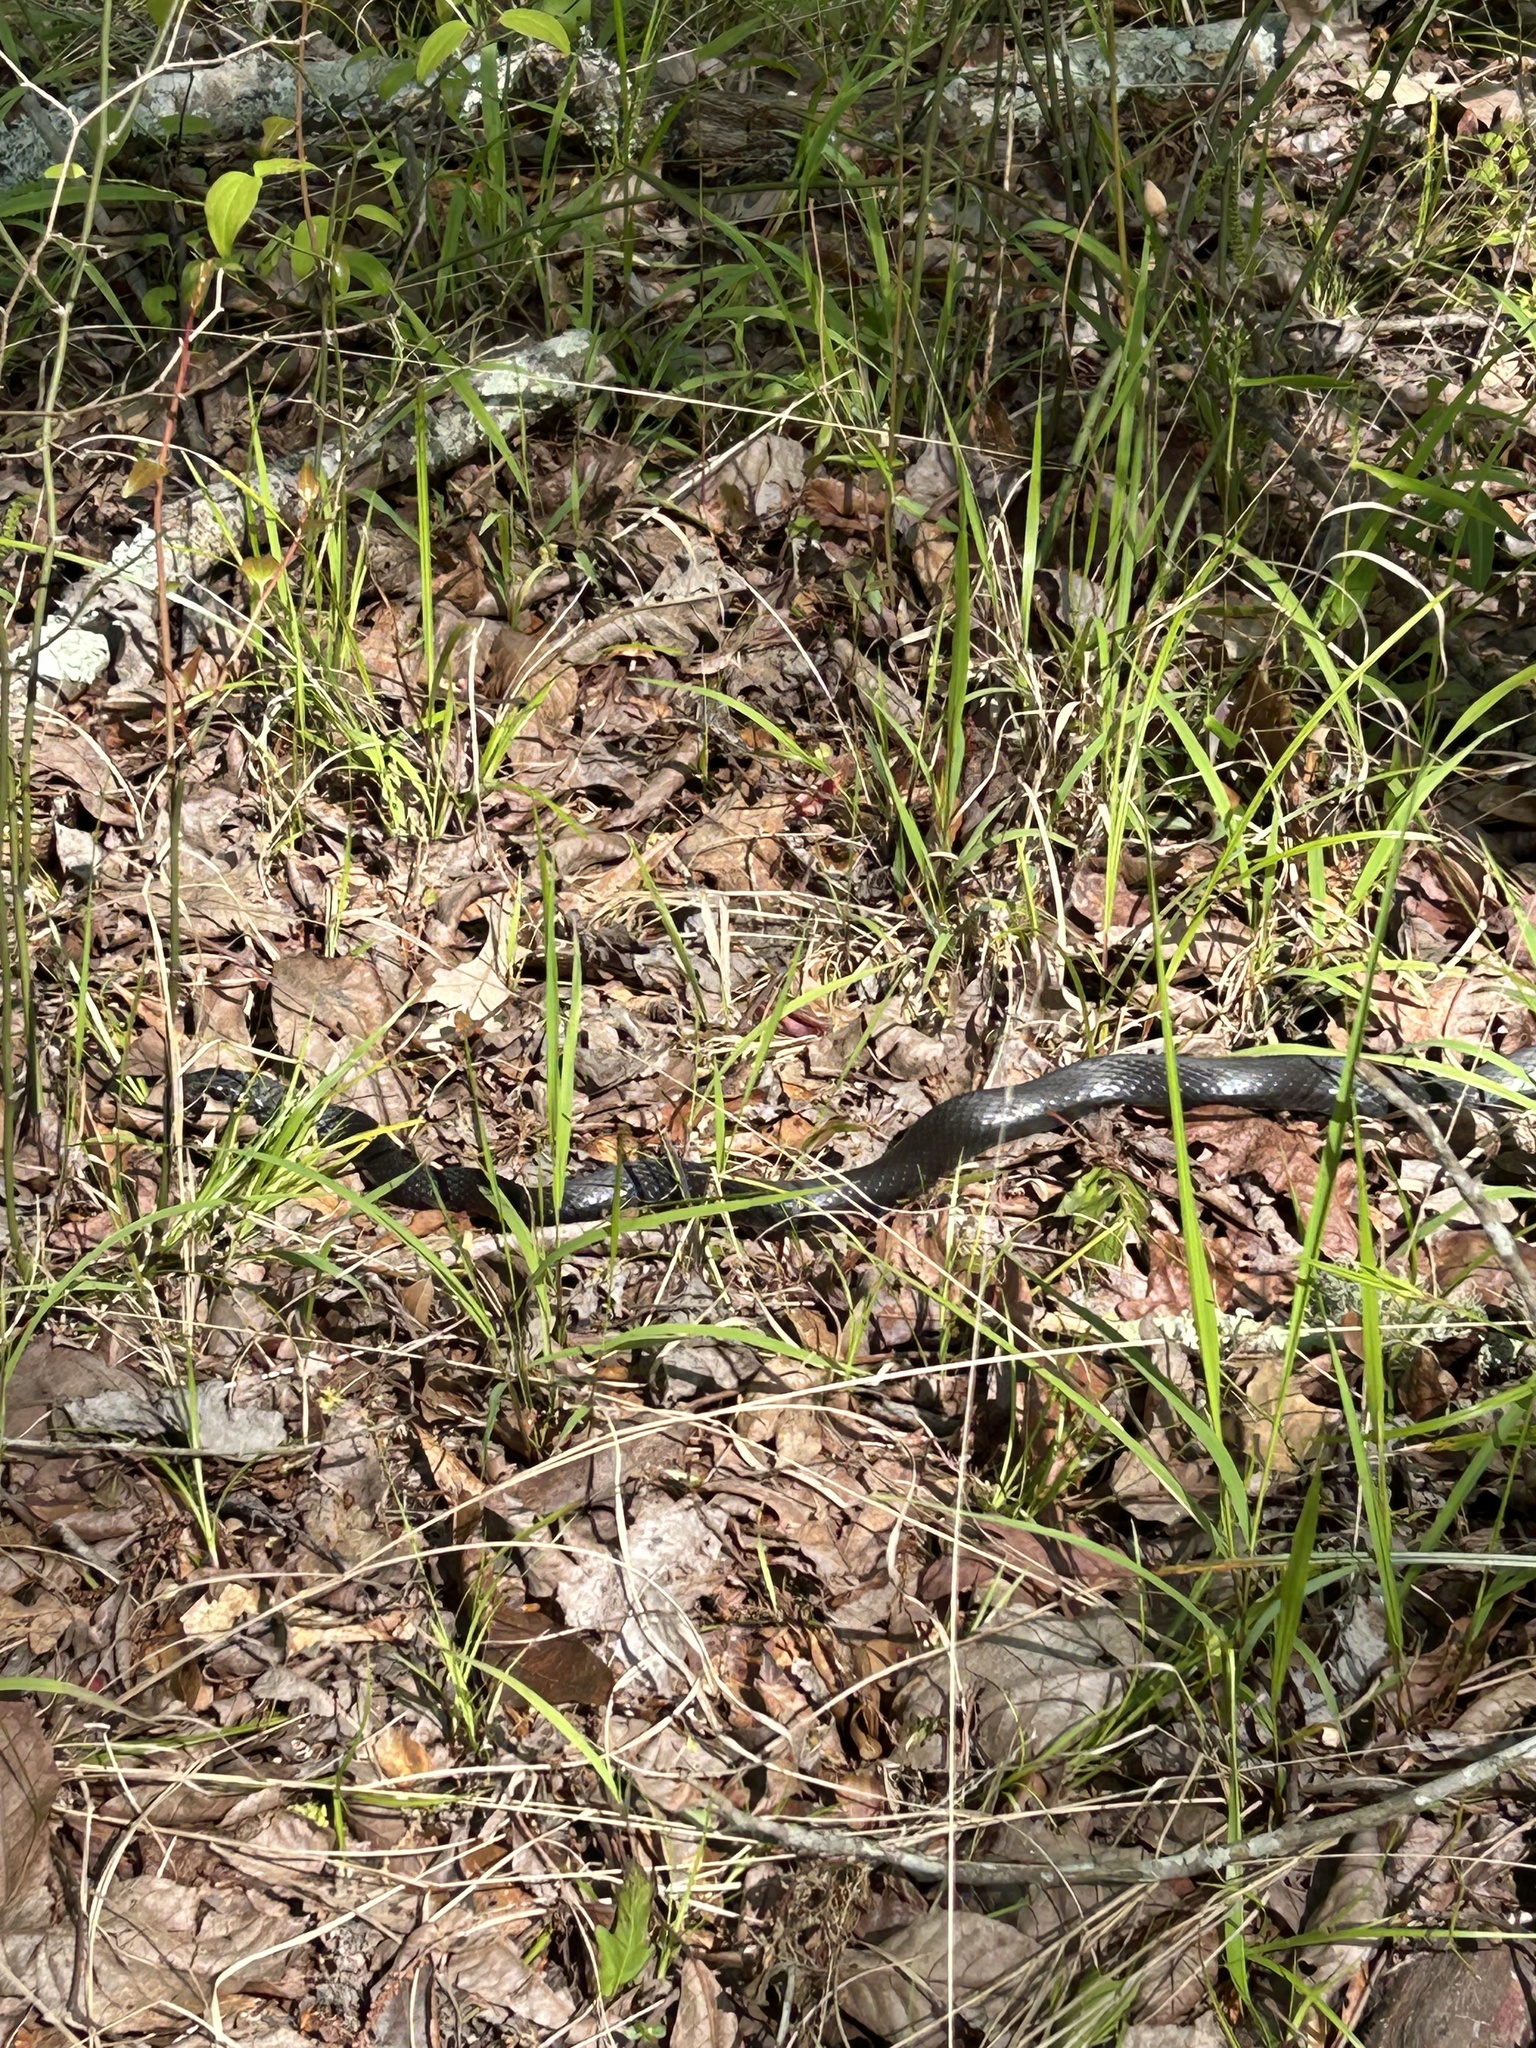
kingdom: Animalia
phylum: Chordata
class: Squamata
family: Colubridae
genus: Coluber
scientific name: Coluber constrictor
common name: Eastern racer
